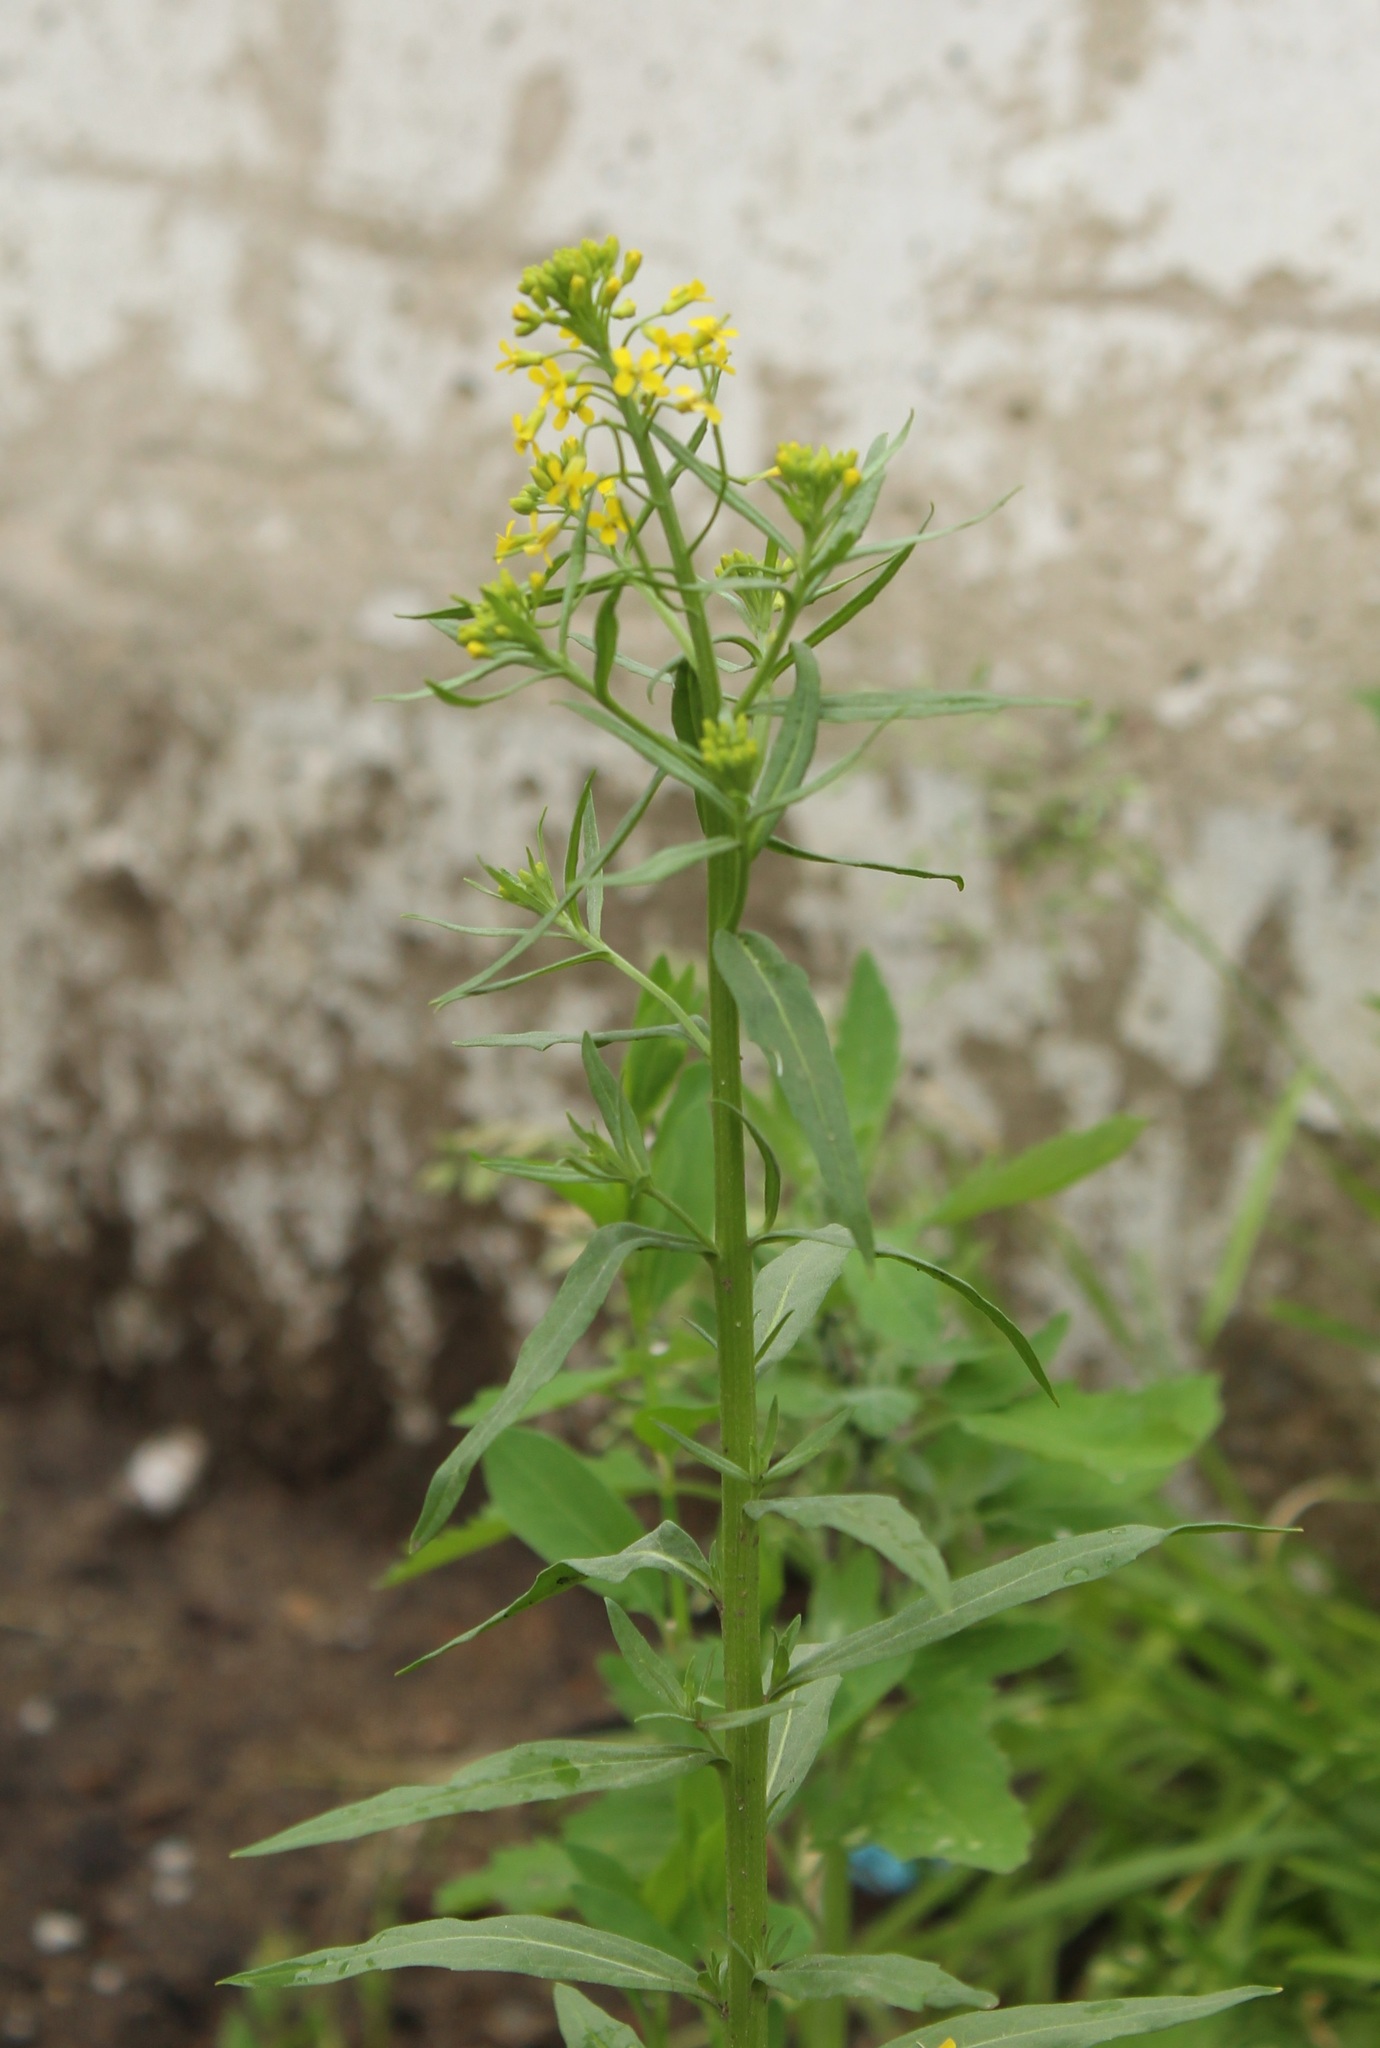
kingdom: Plantae
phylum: Tracheophyta
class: Magnoliopsida
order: Brassicales
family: Brassicaceae
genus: Erysimum
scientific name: Erysimum cheiranthoides
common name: Treacle mustard
